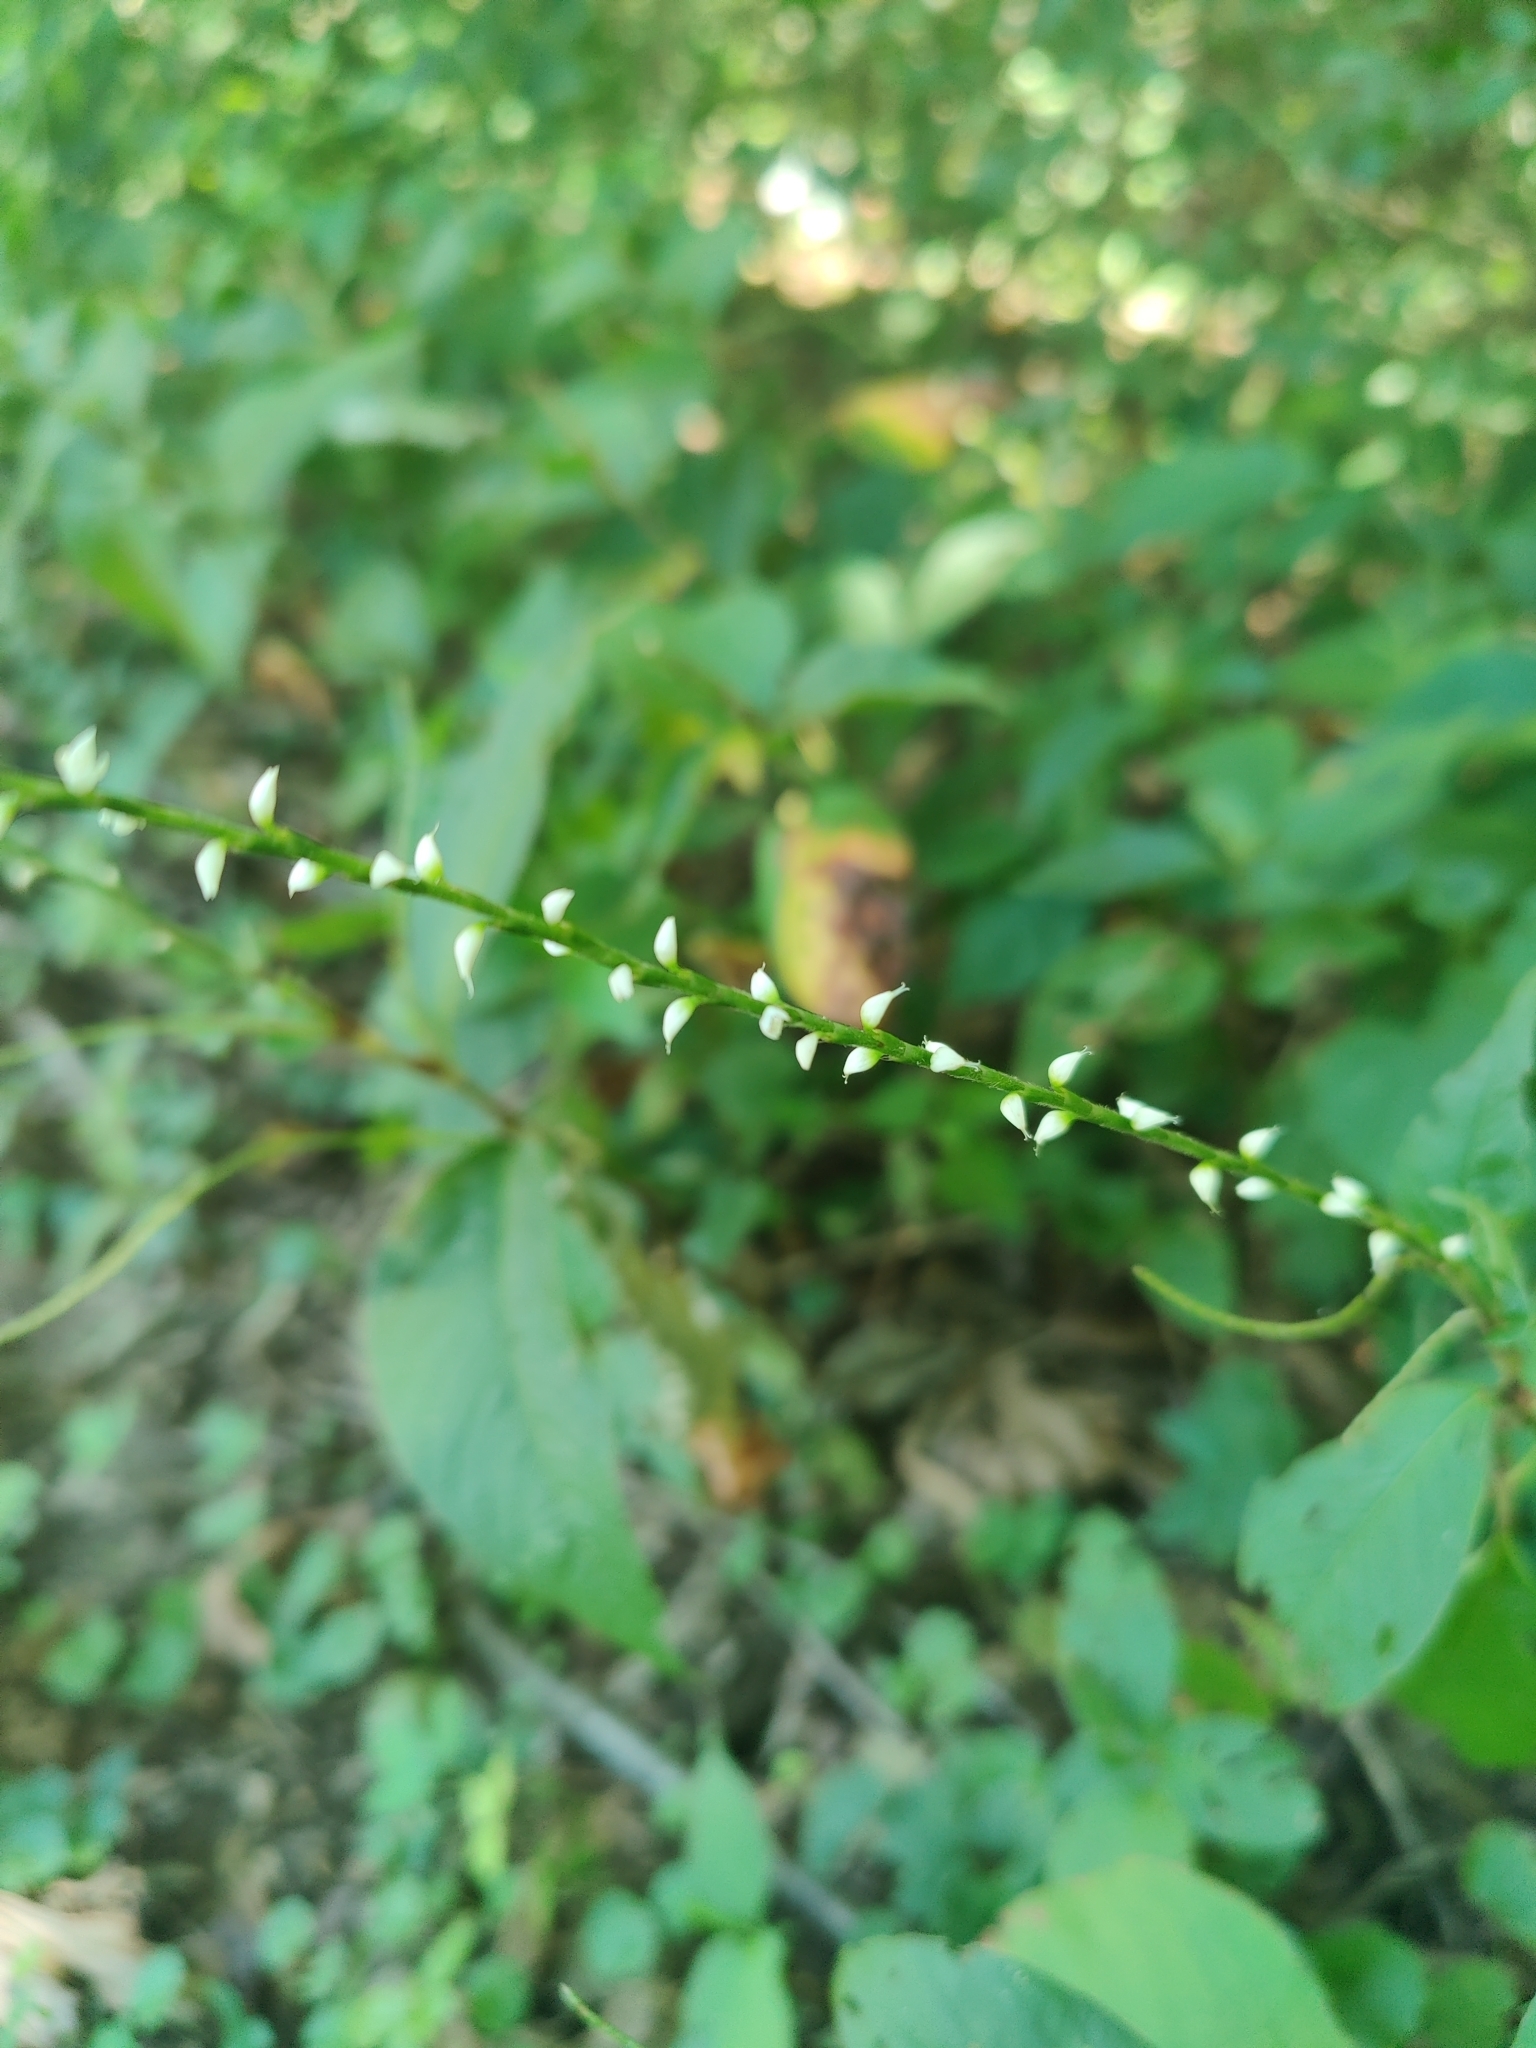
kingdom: Plantae
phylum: Tracheophyta
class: Magnoliopsida
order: Caryophyllales
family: Polygonaceae
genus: Persicaria
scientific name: Persicaria virginiana
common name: Jumpseed
